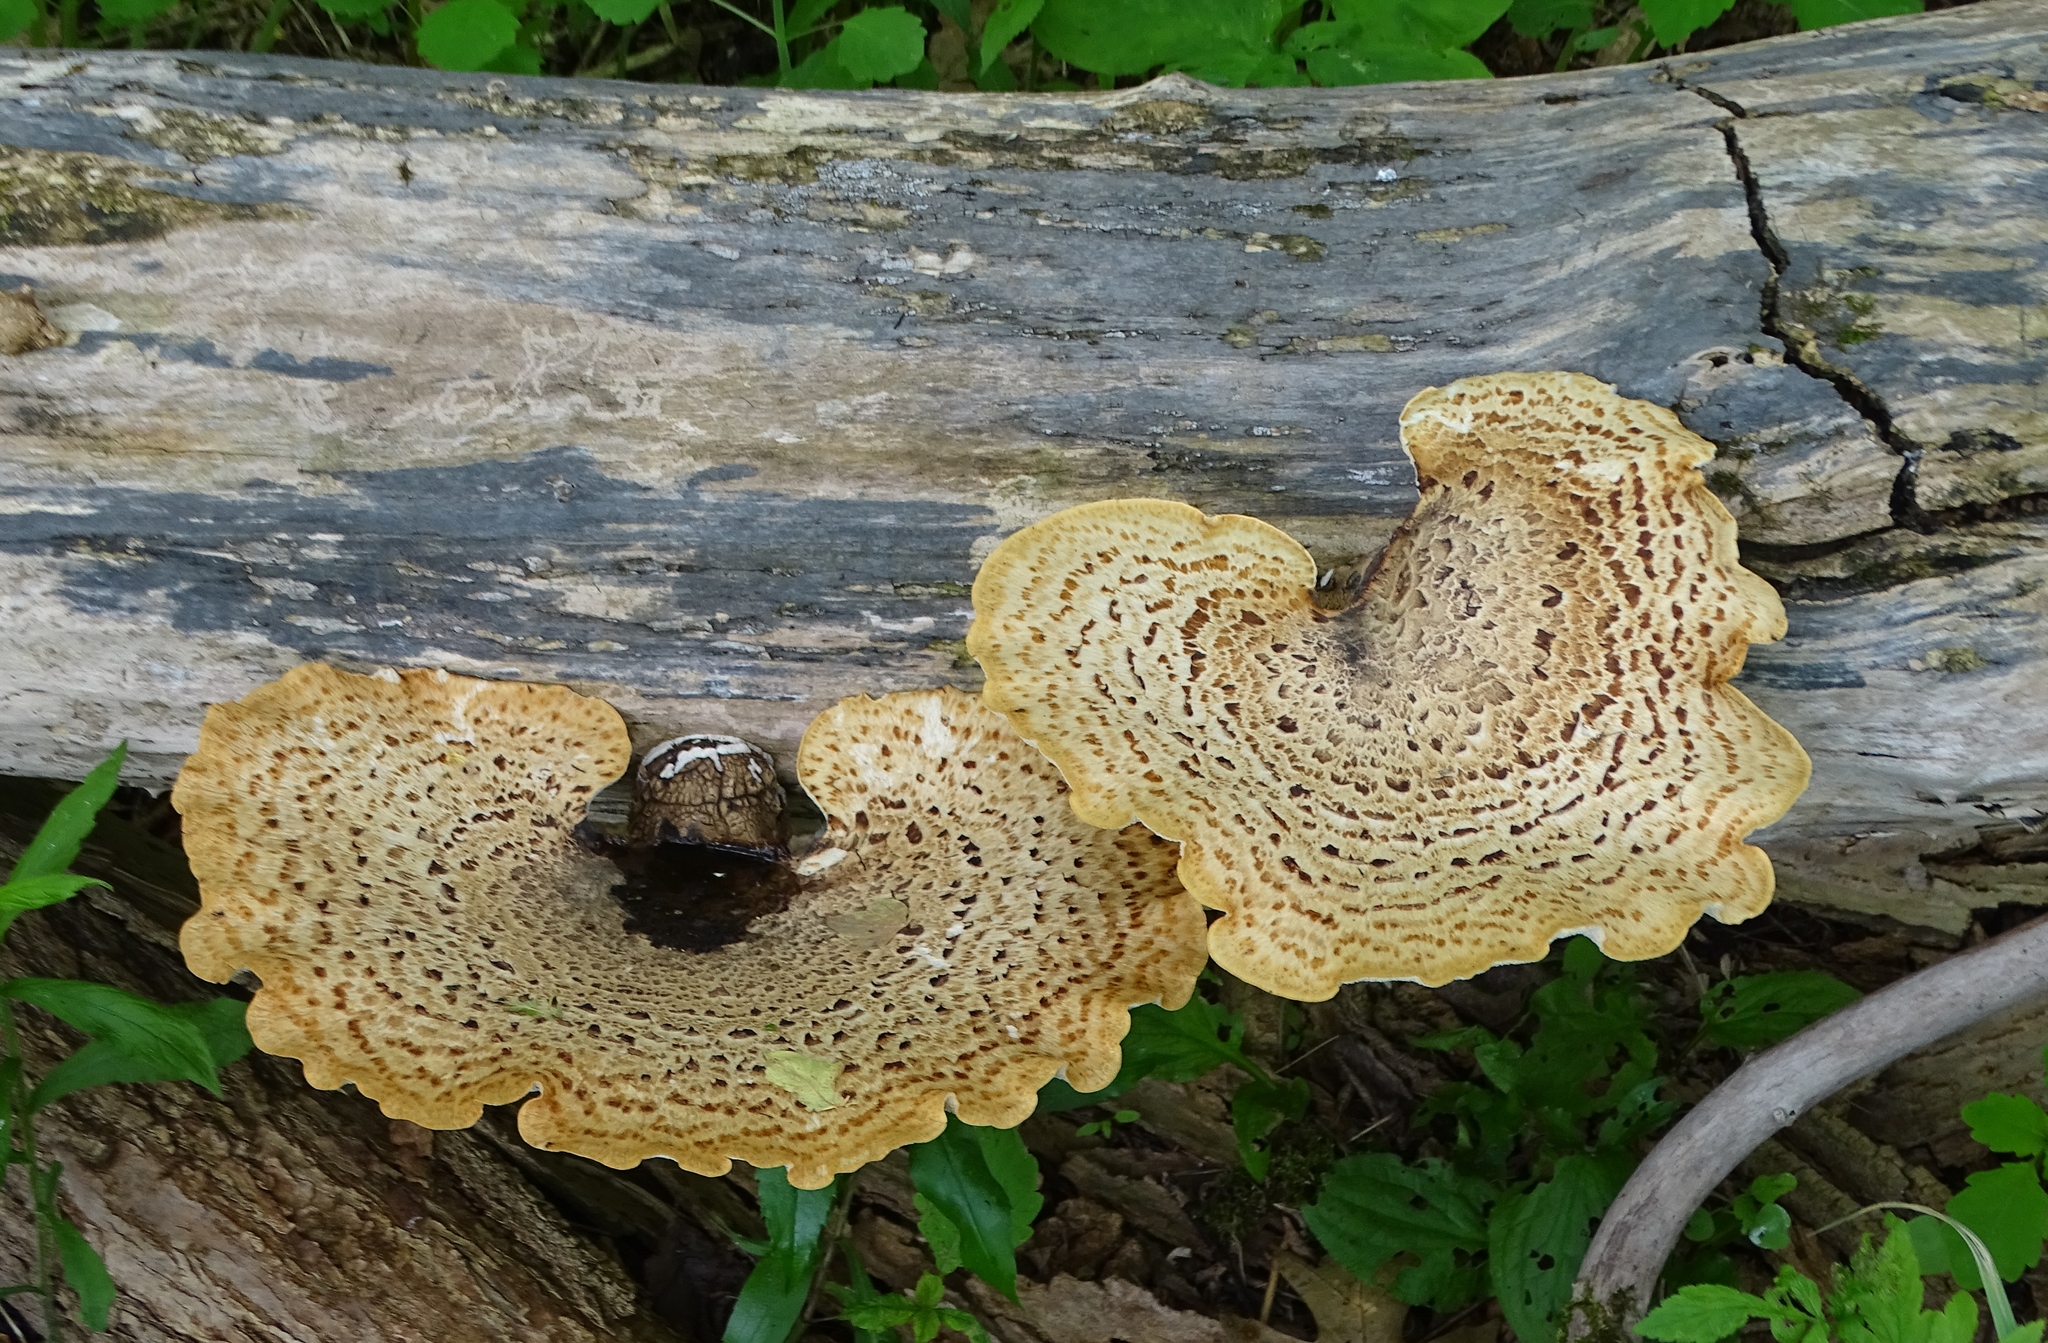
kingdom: Fungi
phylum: Basidiomycota
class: Agaricomycetes
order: Polyporales
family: Polyporaceae
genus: Cerioporus
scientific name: Cerioporus squamosus
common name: Dryad's saddle
